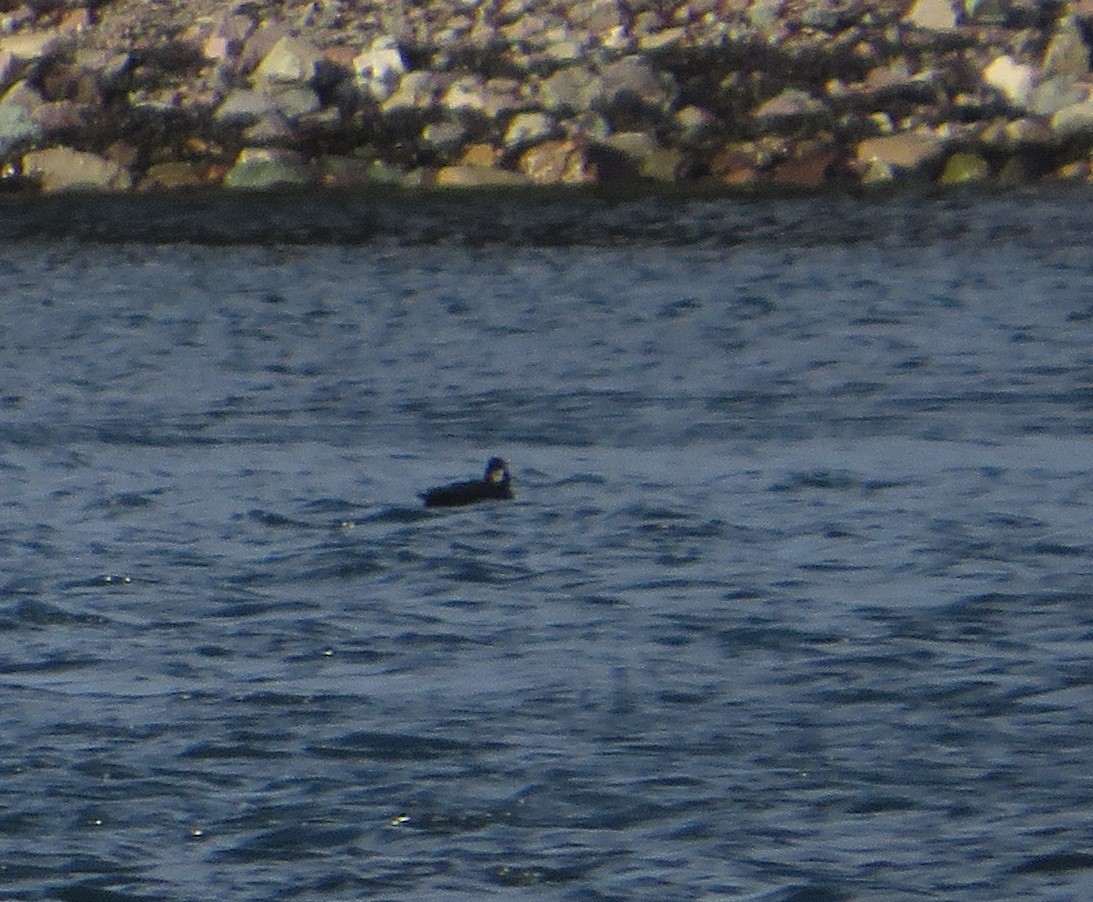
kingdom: Animalia
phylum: Chordata
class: Aves
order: Anseriformes
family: Anatidae
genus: Melanitta
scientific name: Melanitta americana
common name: Black scoter
